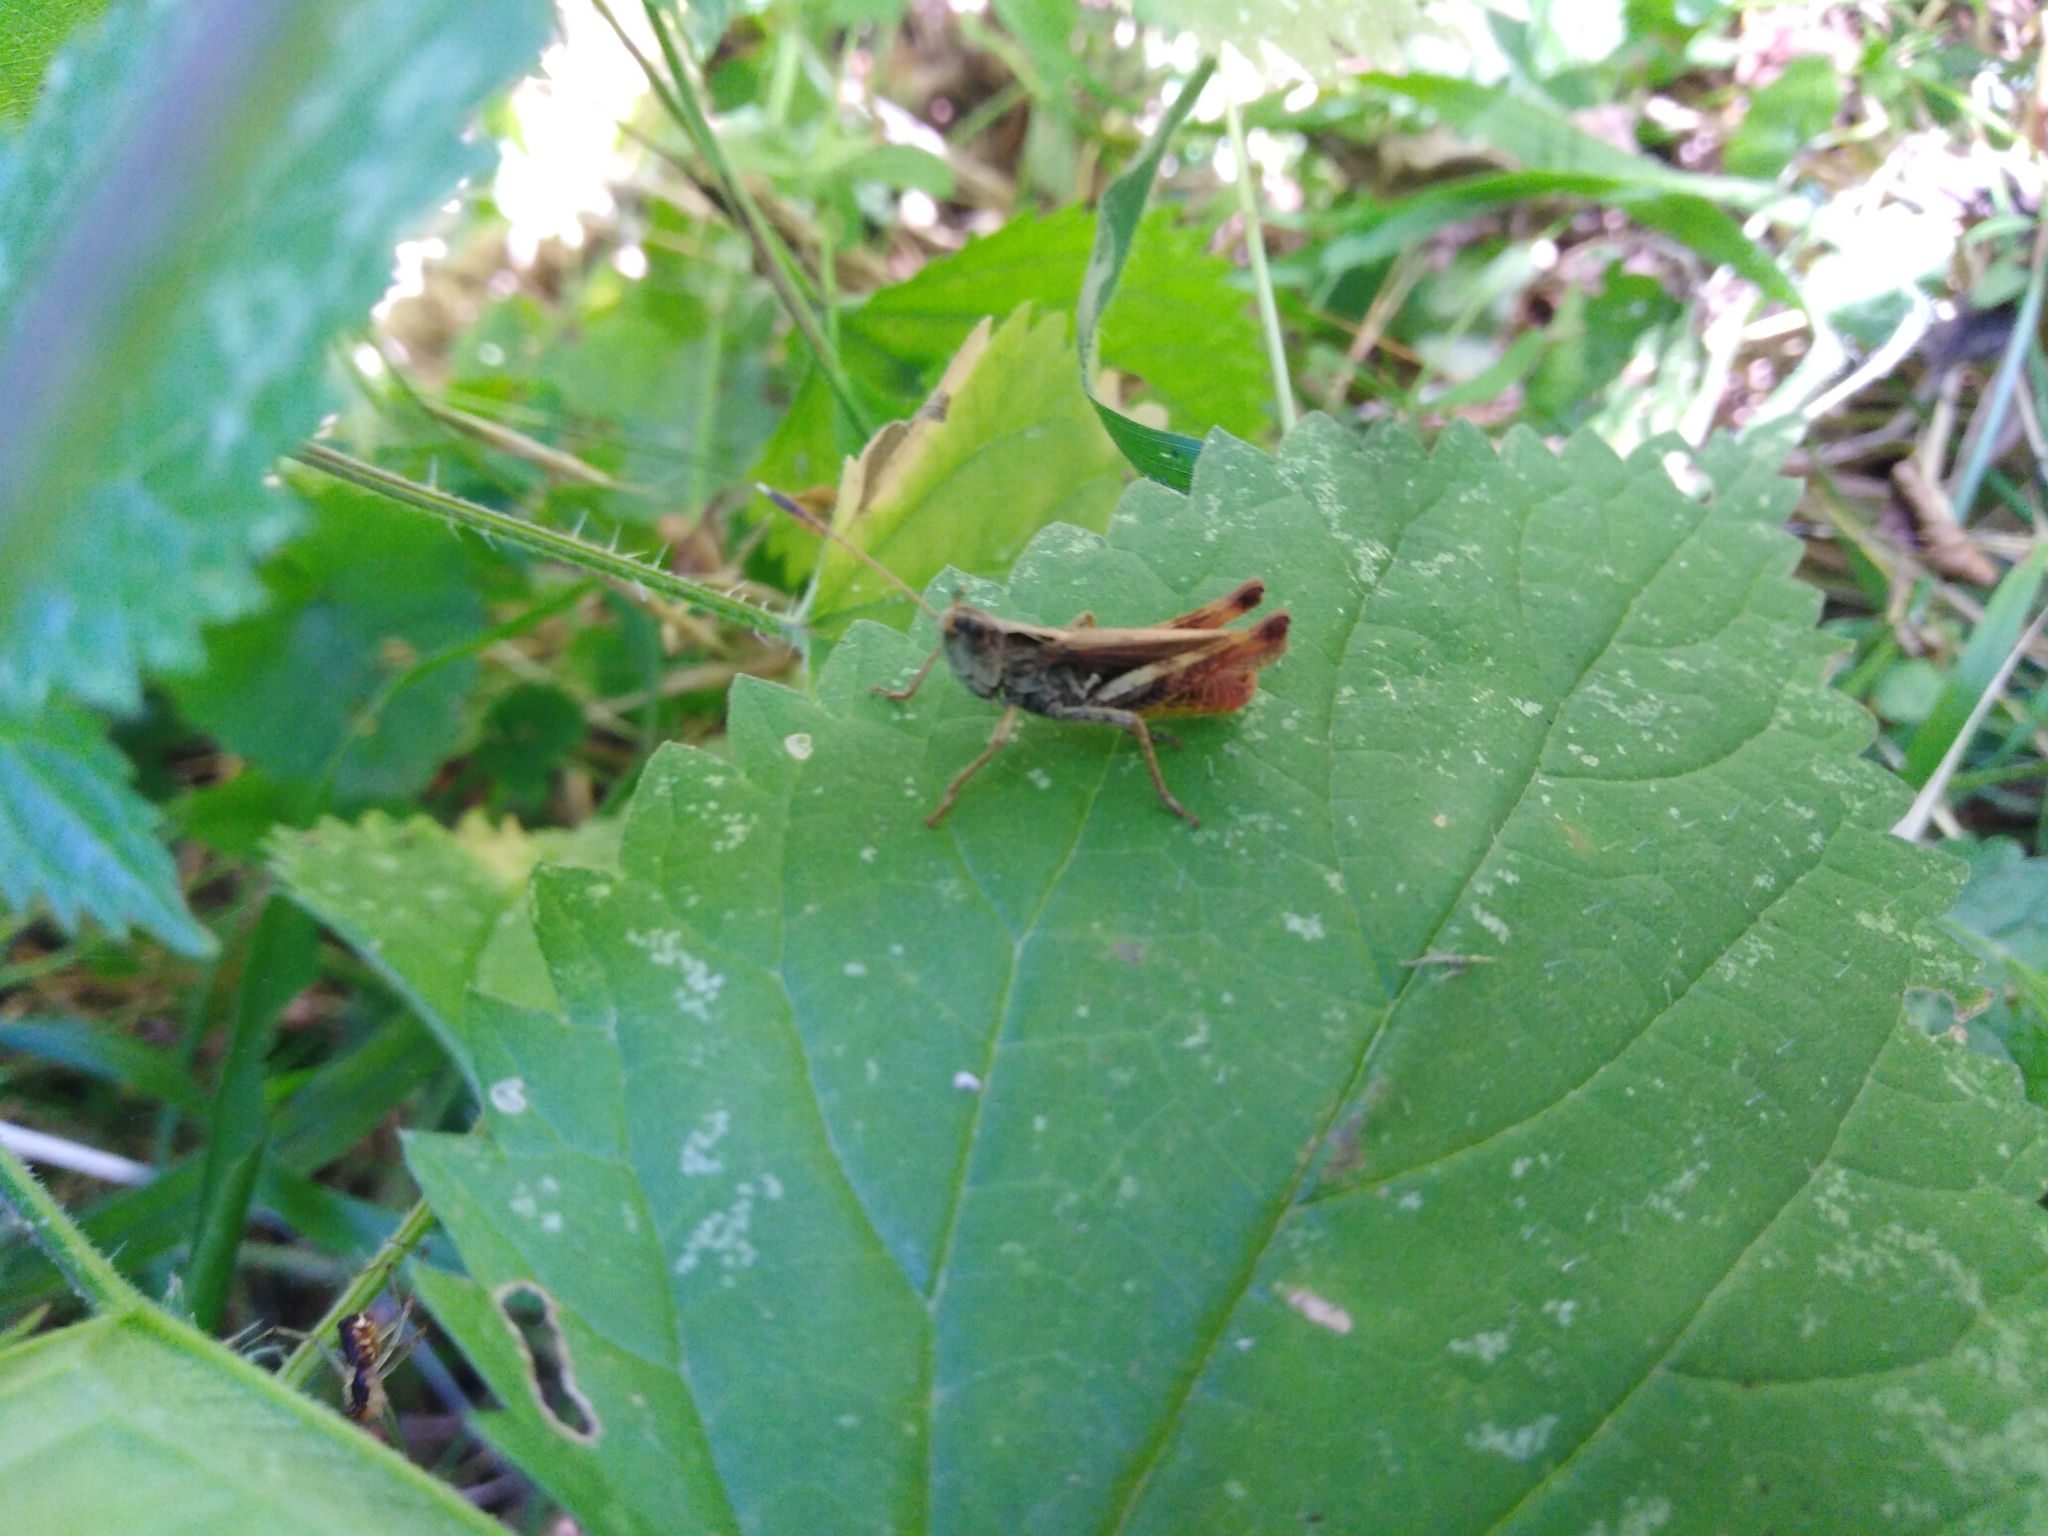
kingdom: Animalia
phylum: Arthropoda
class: Insecta
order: Orthoptera
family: Acrididae
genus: Gomphocerippus
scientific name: Gomphocerippus rufus
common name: Rufous grasshopper
